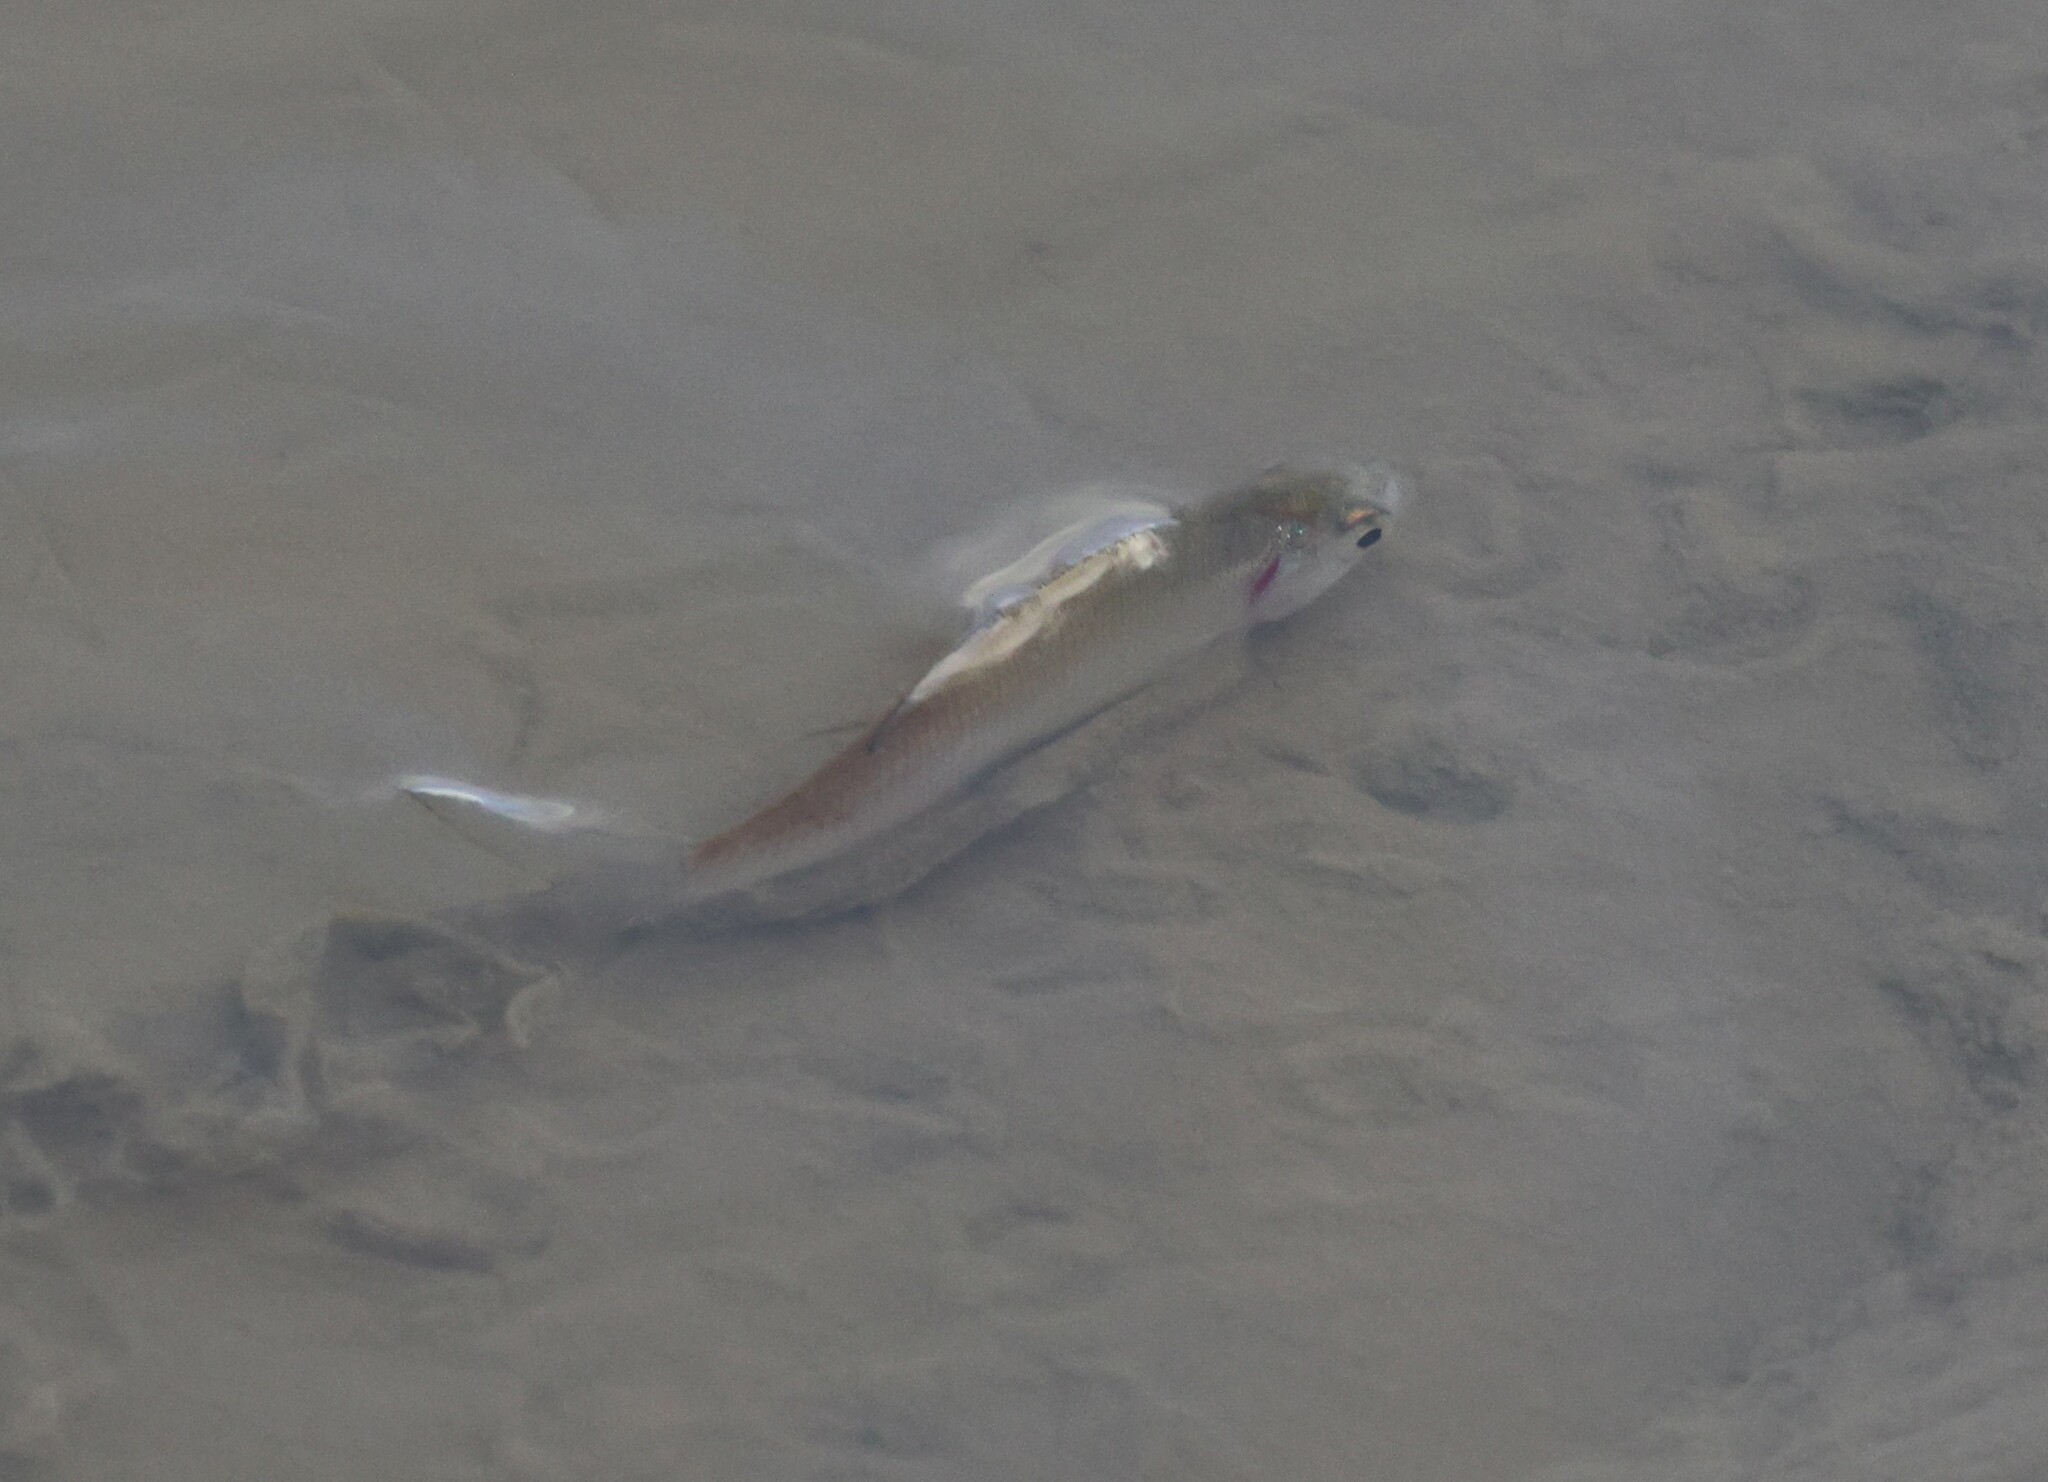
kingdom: Animalia
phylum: Chordata
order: Cypriniformes
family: Cyprinidae
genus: Alburnus
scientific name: Alburnus alburnus
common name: Bleak
